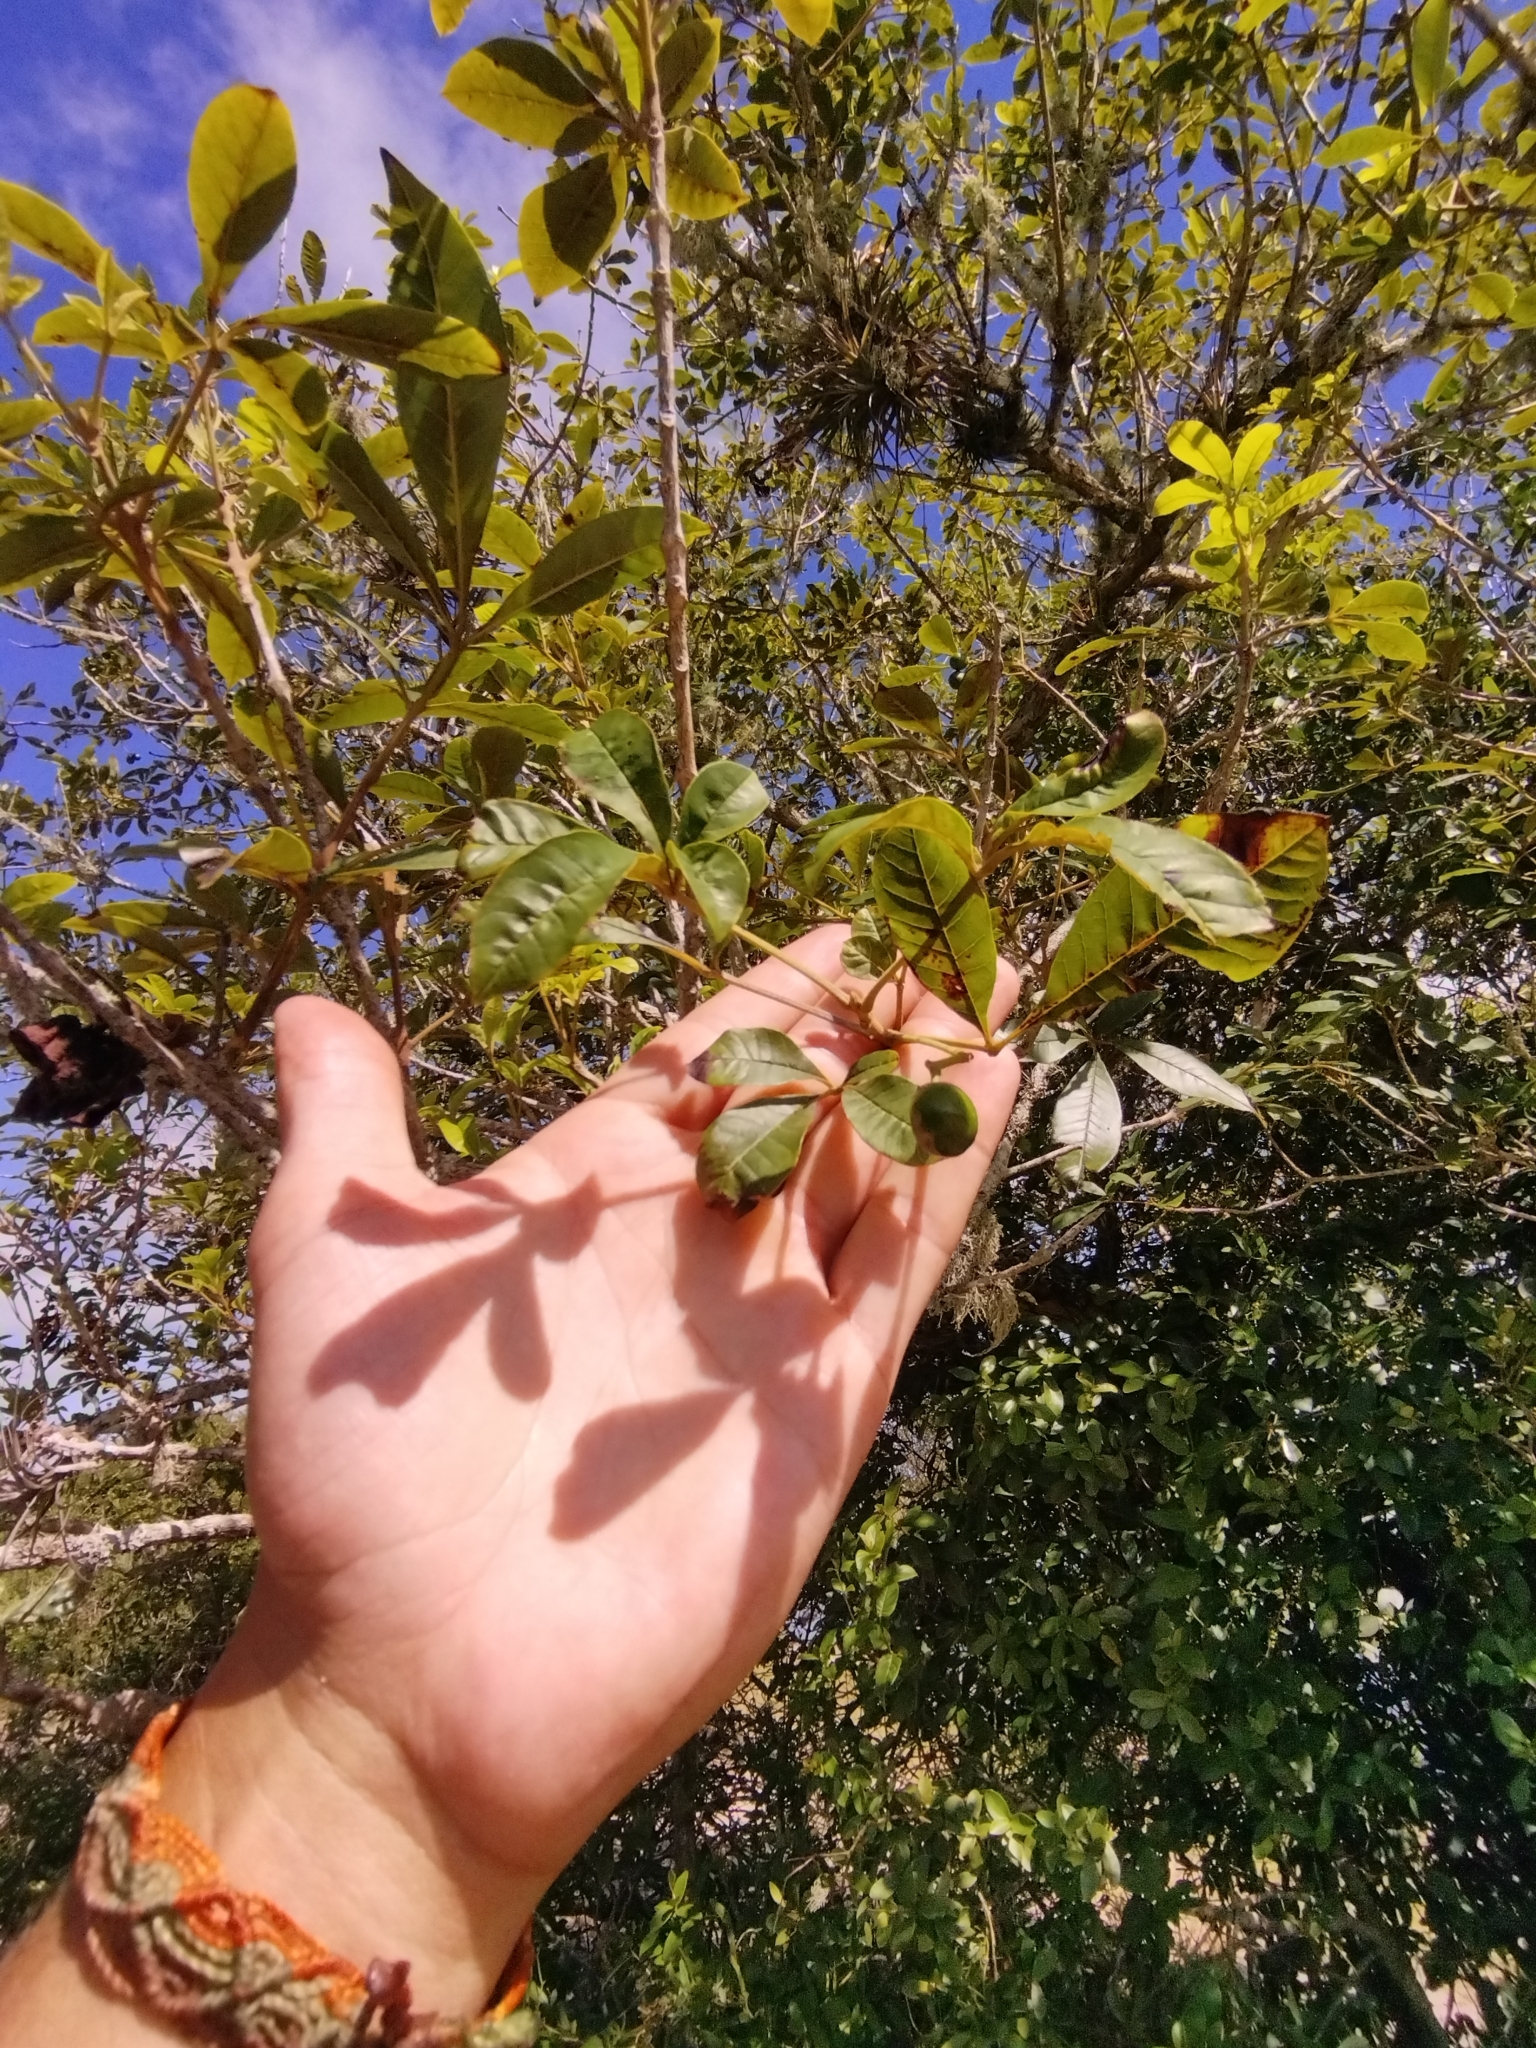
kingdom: Plantae
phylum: Tracheophyta
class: Magnoliopsida
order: Lamiales
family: Lamiaceae
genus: Vitex
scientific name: Vitex megapotamica
